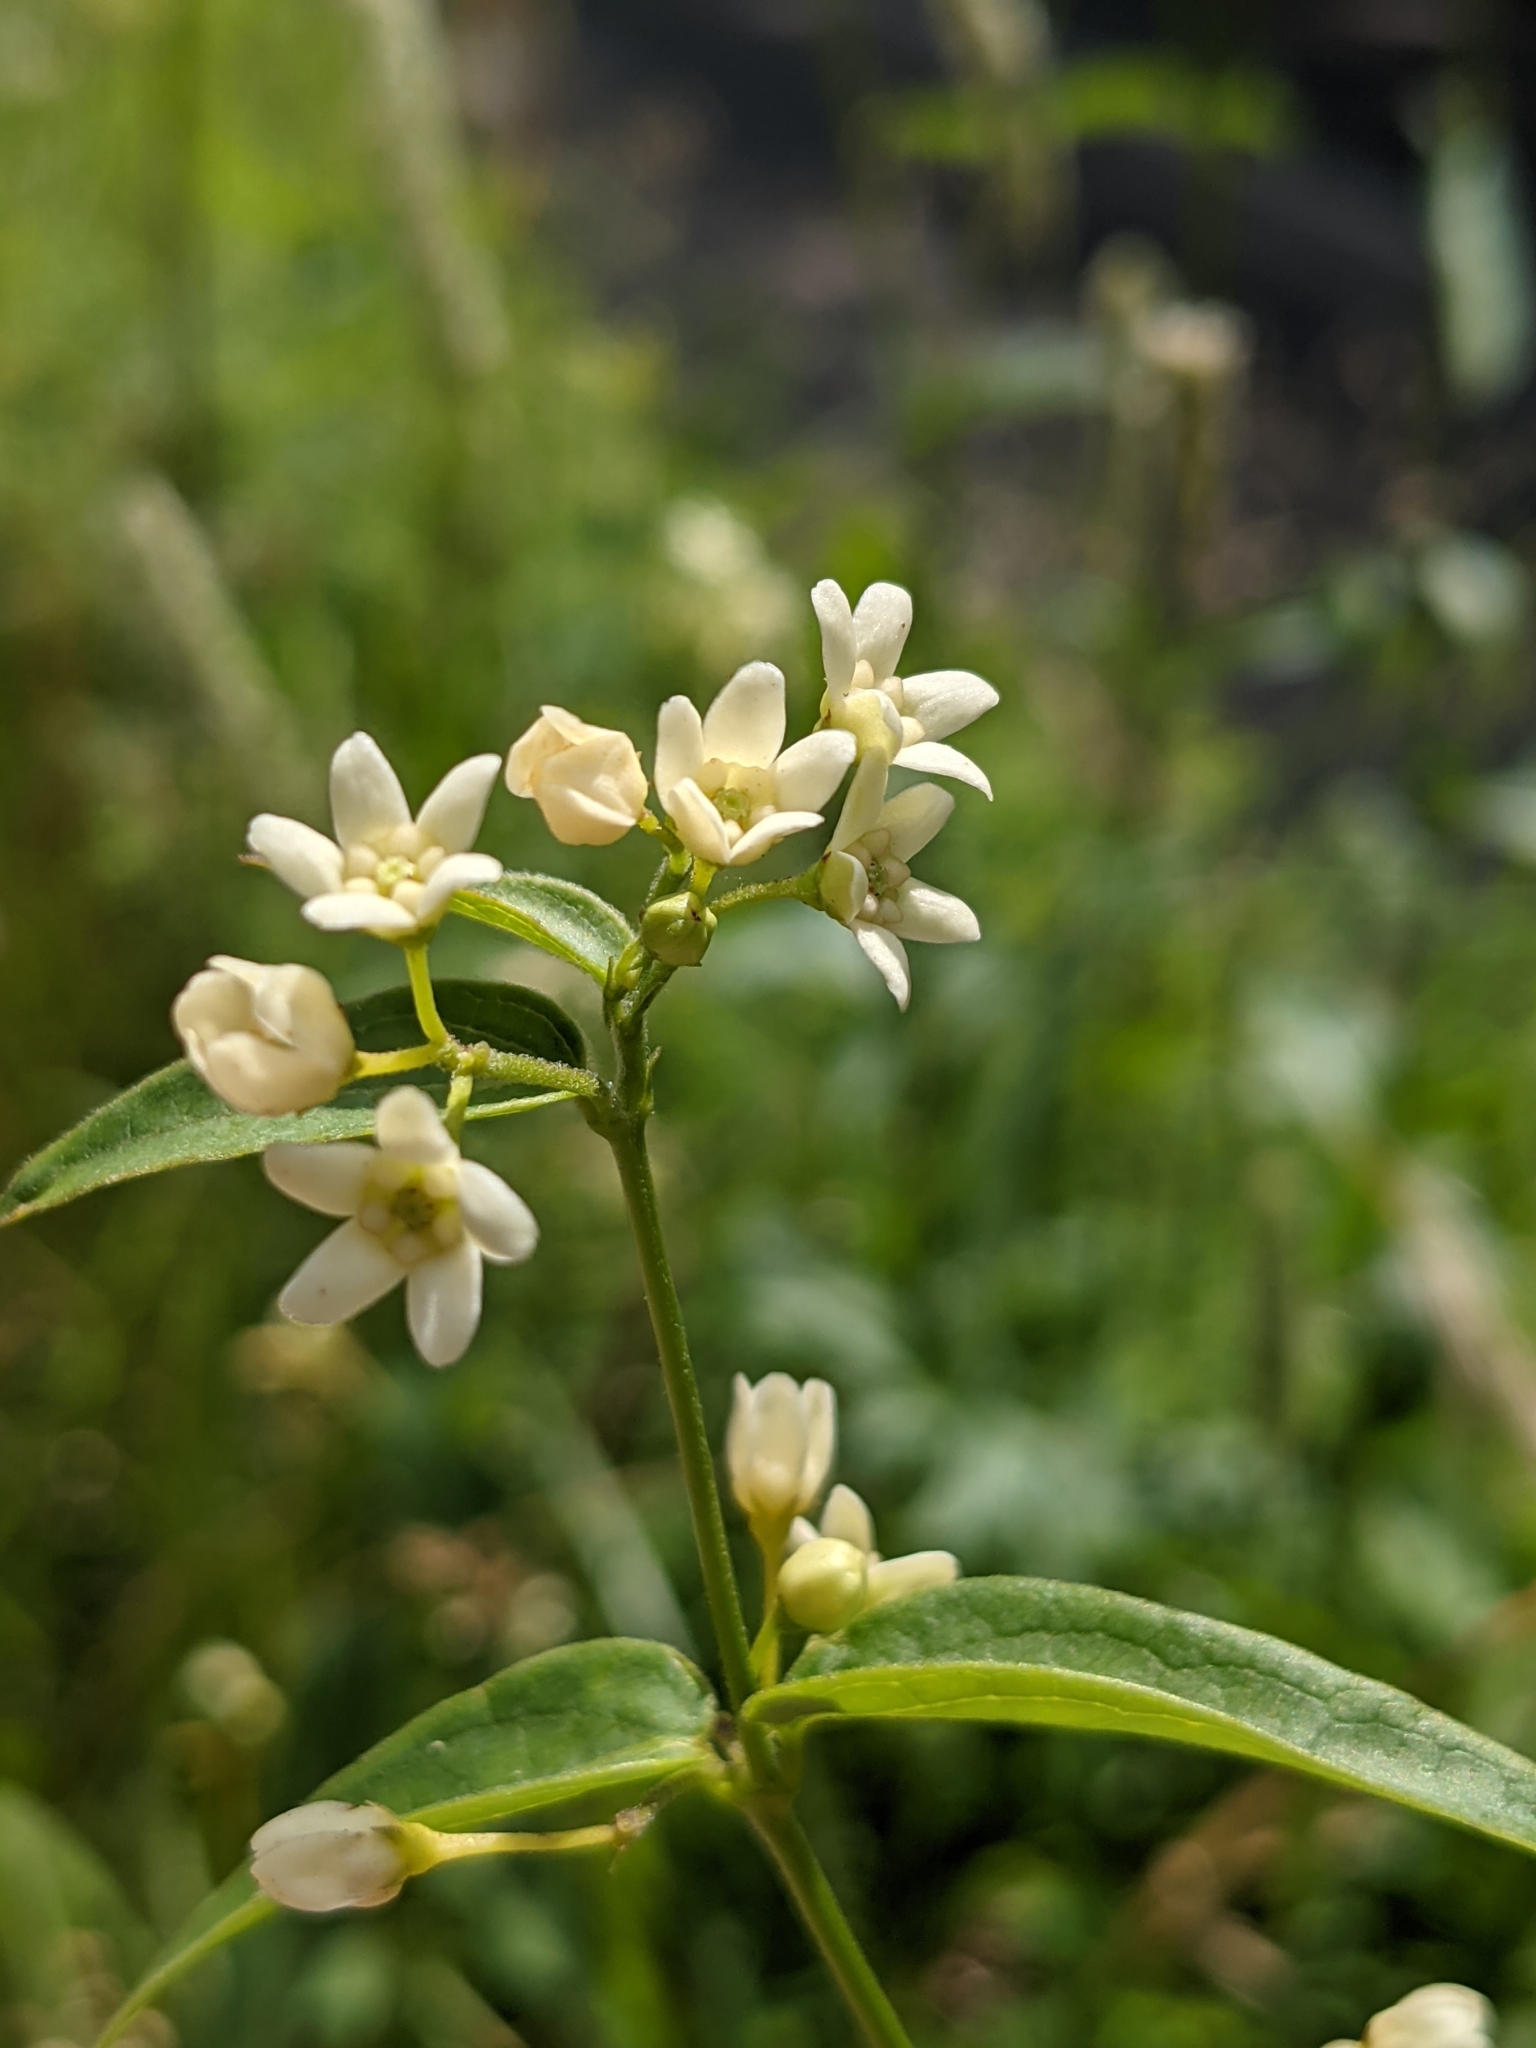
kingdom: Plantae
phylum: Tracheophyta
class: Magnoliopsida
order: Gentianales
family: Apocynaceae
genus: Vincetoxicum
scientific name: Vincetoxicum hirundinaria
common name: White swallowwort
